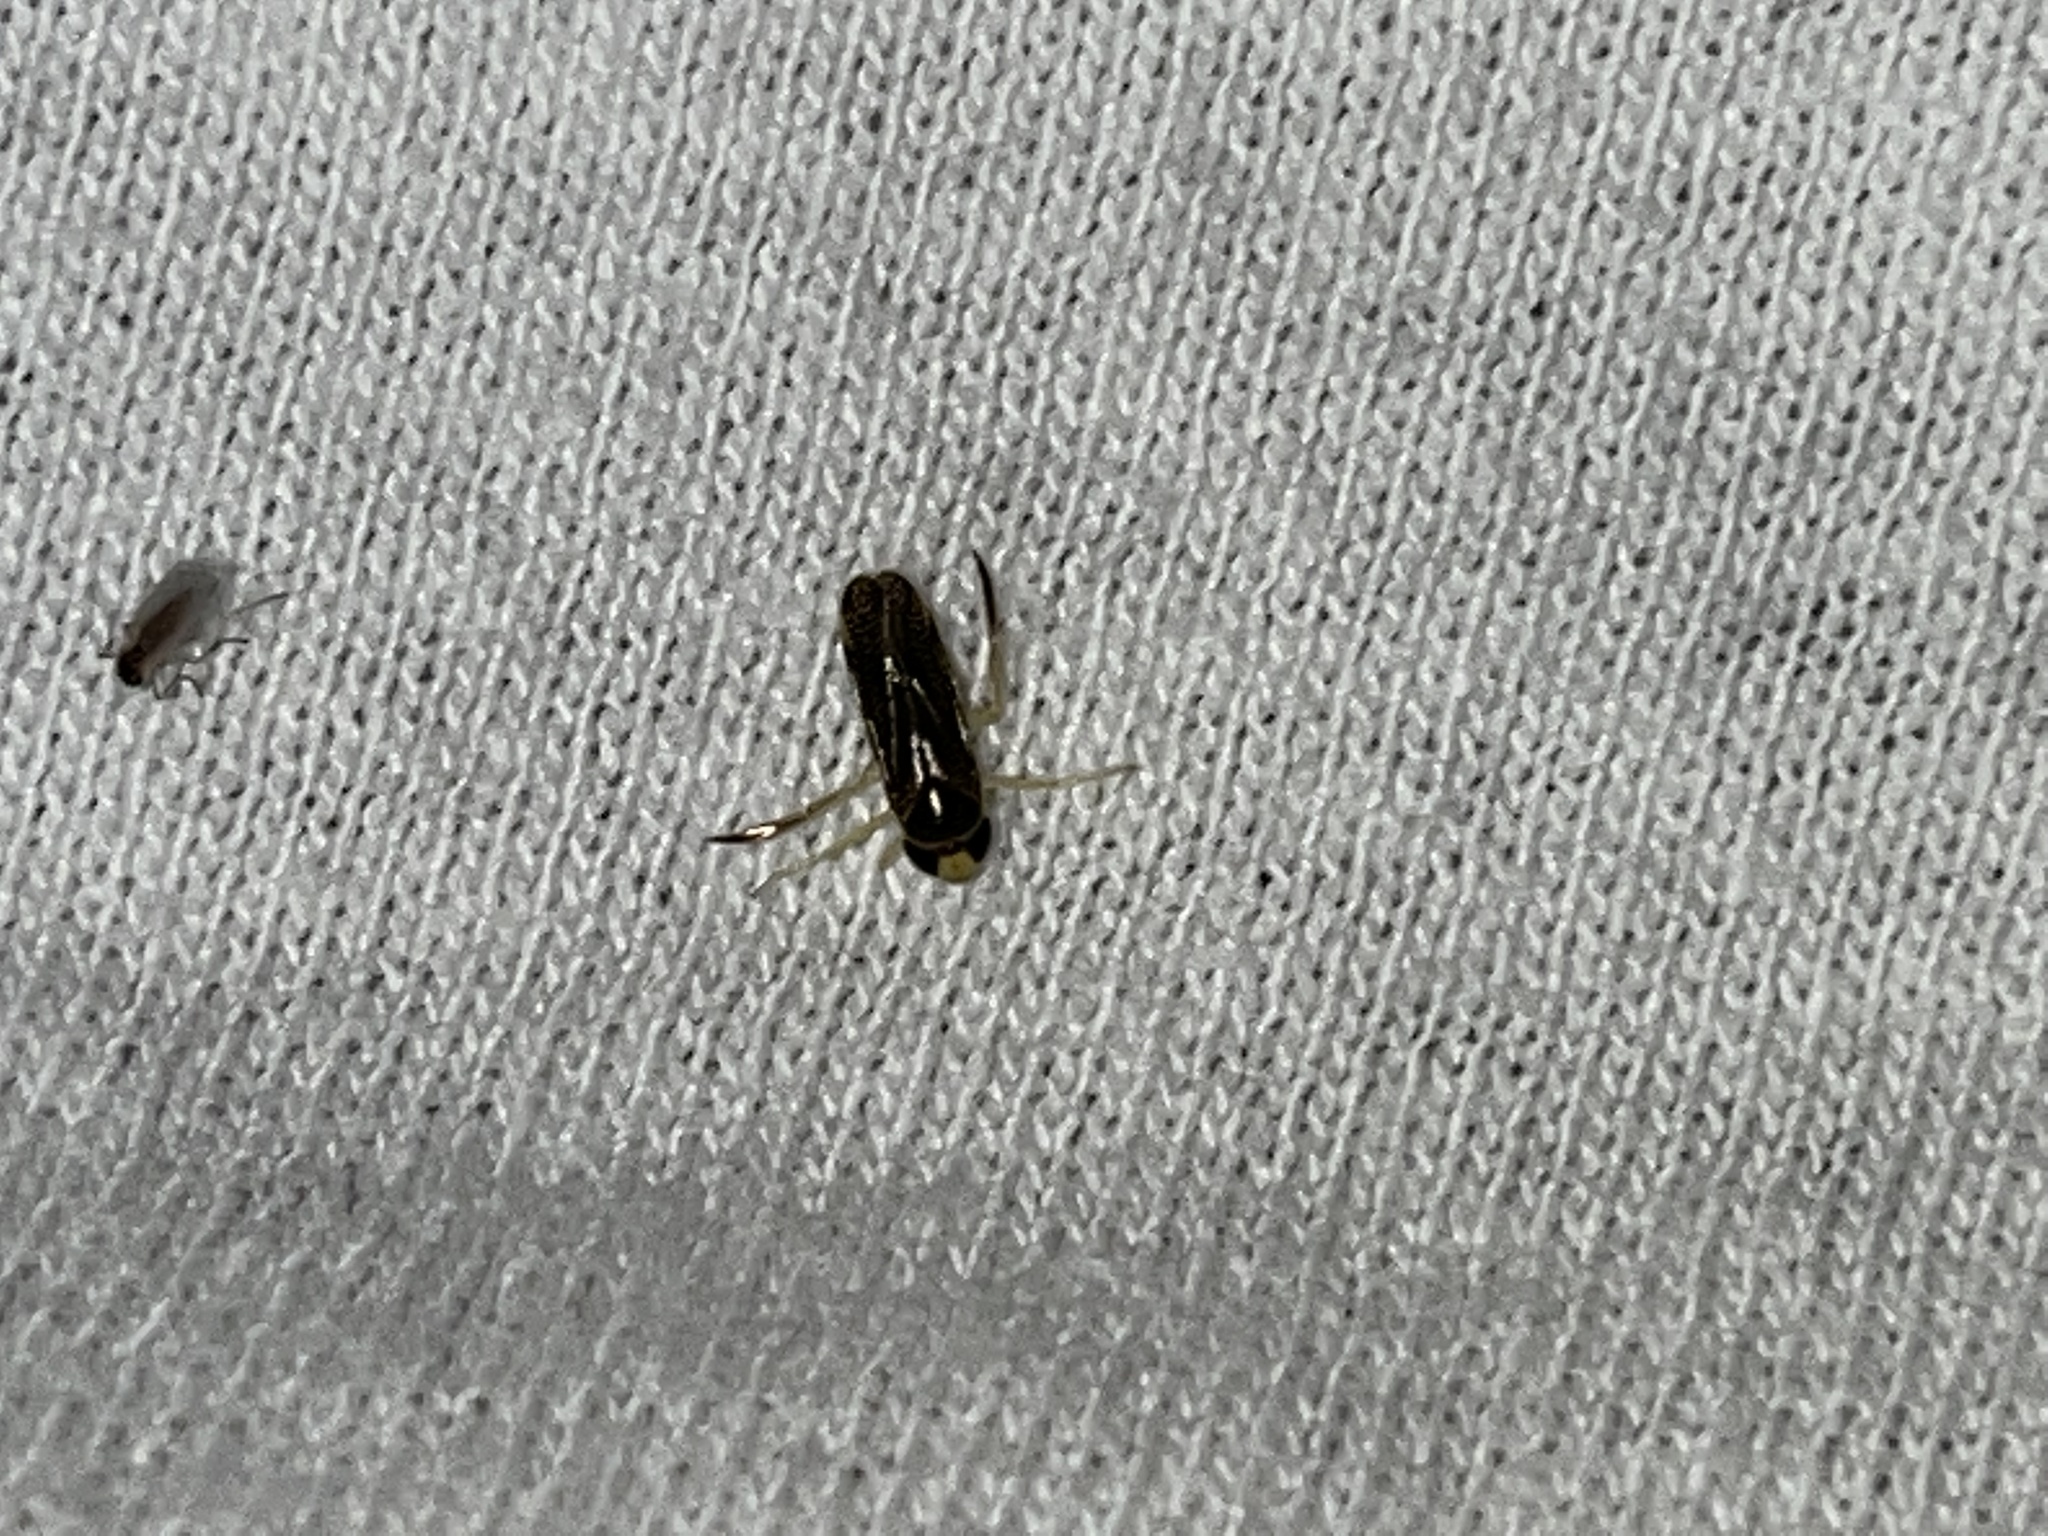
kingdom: Animalia
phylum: Arthropoda
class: Insecta
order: Hemiptera
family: Corixidae
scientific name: Corixidae
